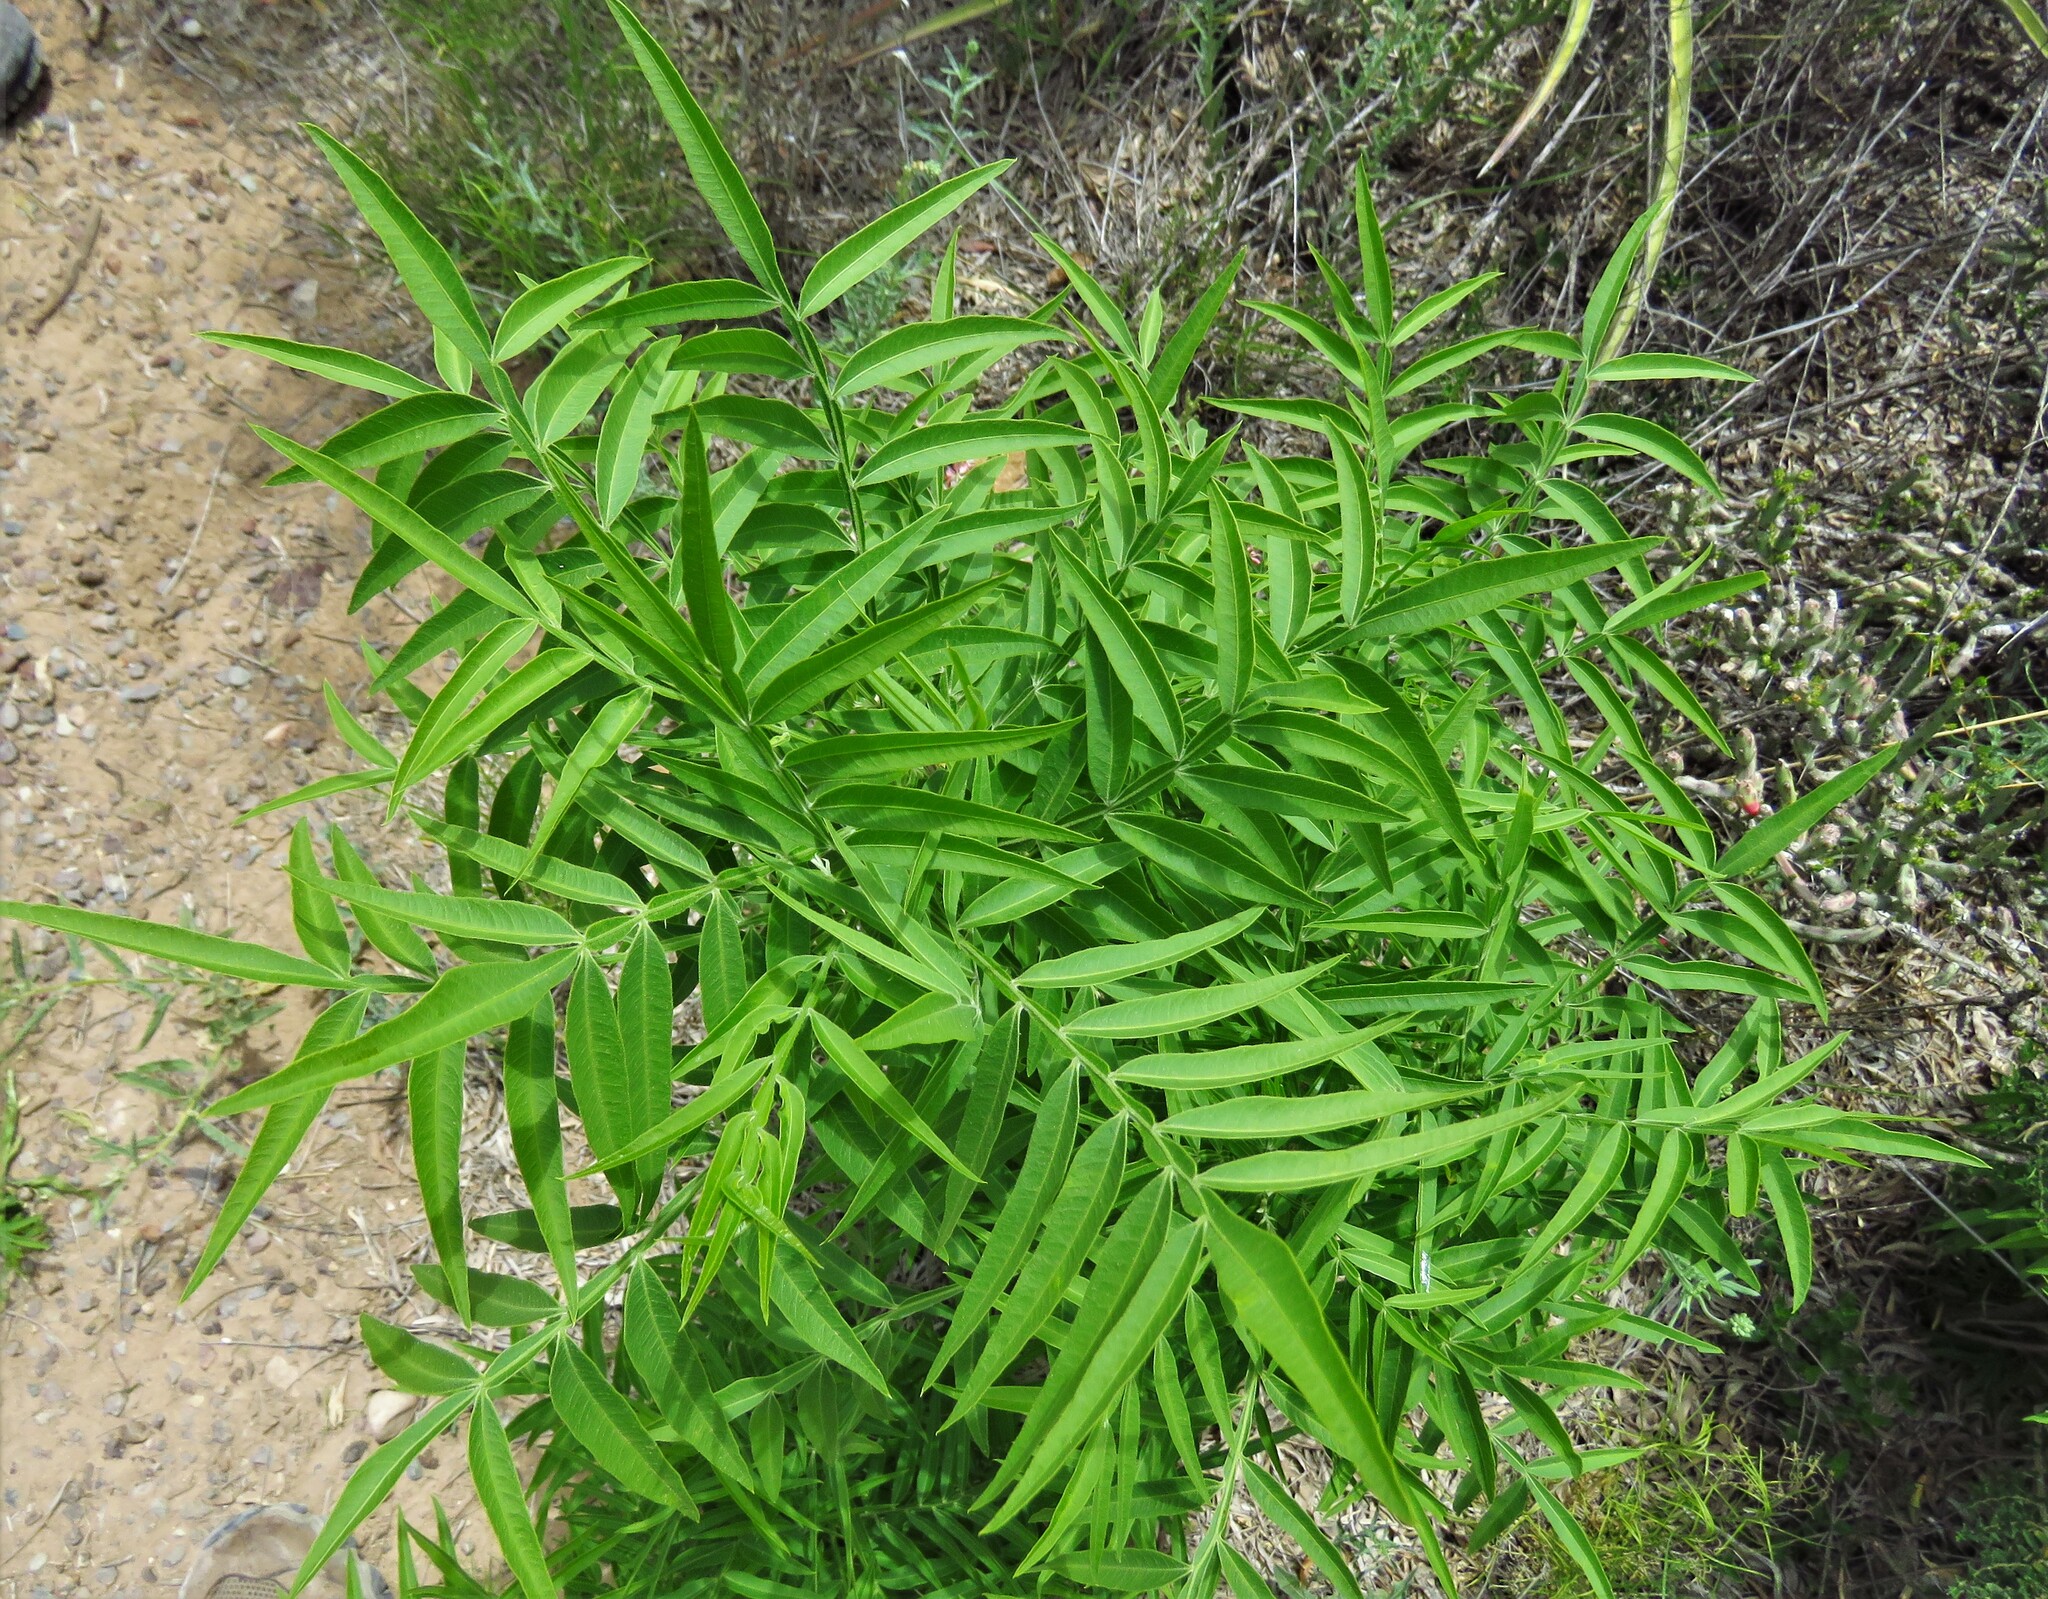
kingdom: Plantae
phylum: Tracheophyta
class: Magnoliopsida
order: Sapindales
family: Anacardiaceae
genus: Rhus
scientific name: Rhus lanceolata
